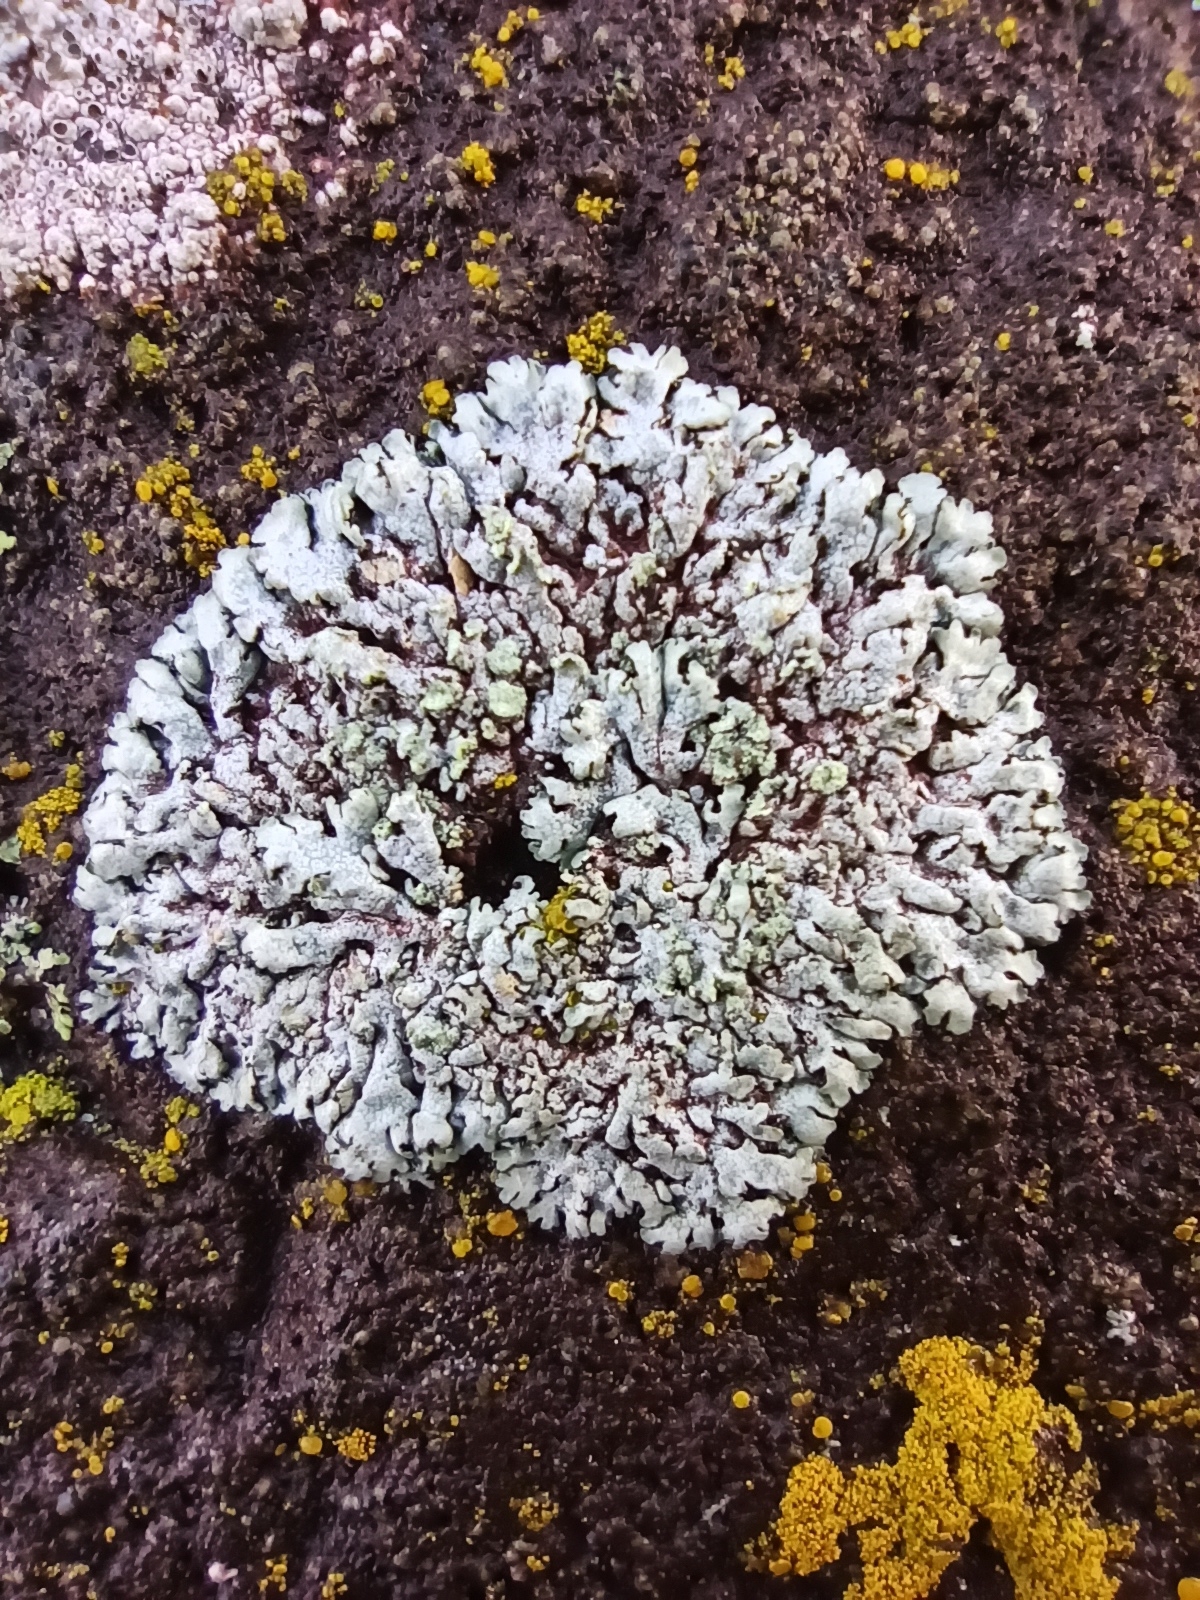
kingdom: Fungi
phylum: Ascomycota
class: Lecanoromycetes
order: Caliciales
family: Physciaceae
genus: Physcia
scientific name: Physcia caesia
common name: Blue-gray rosette lichen
